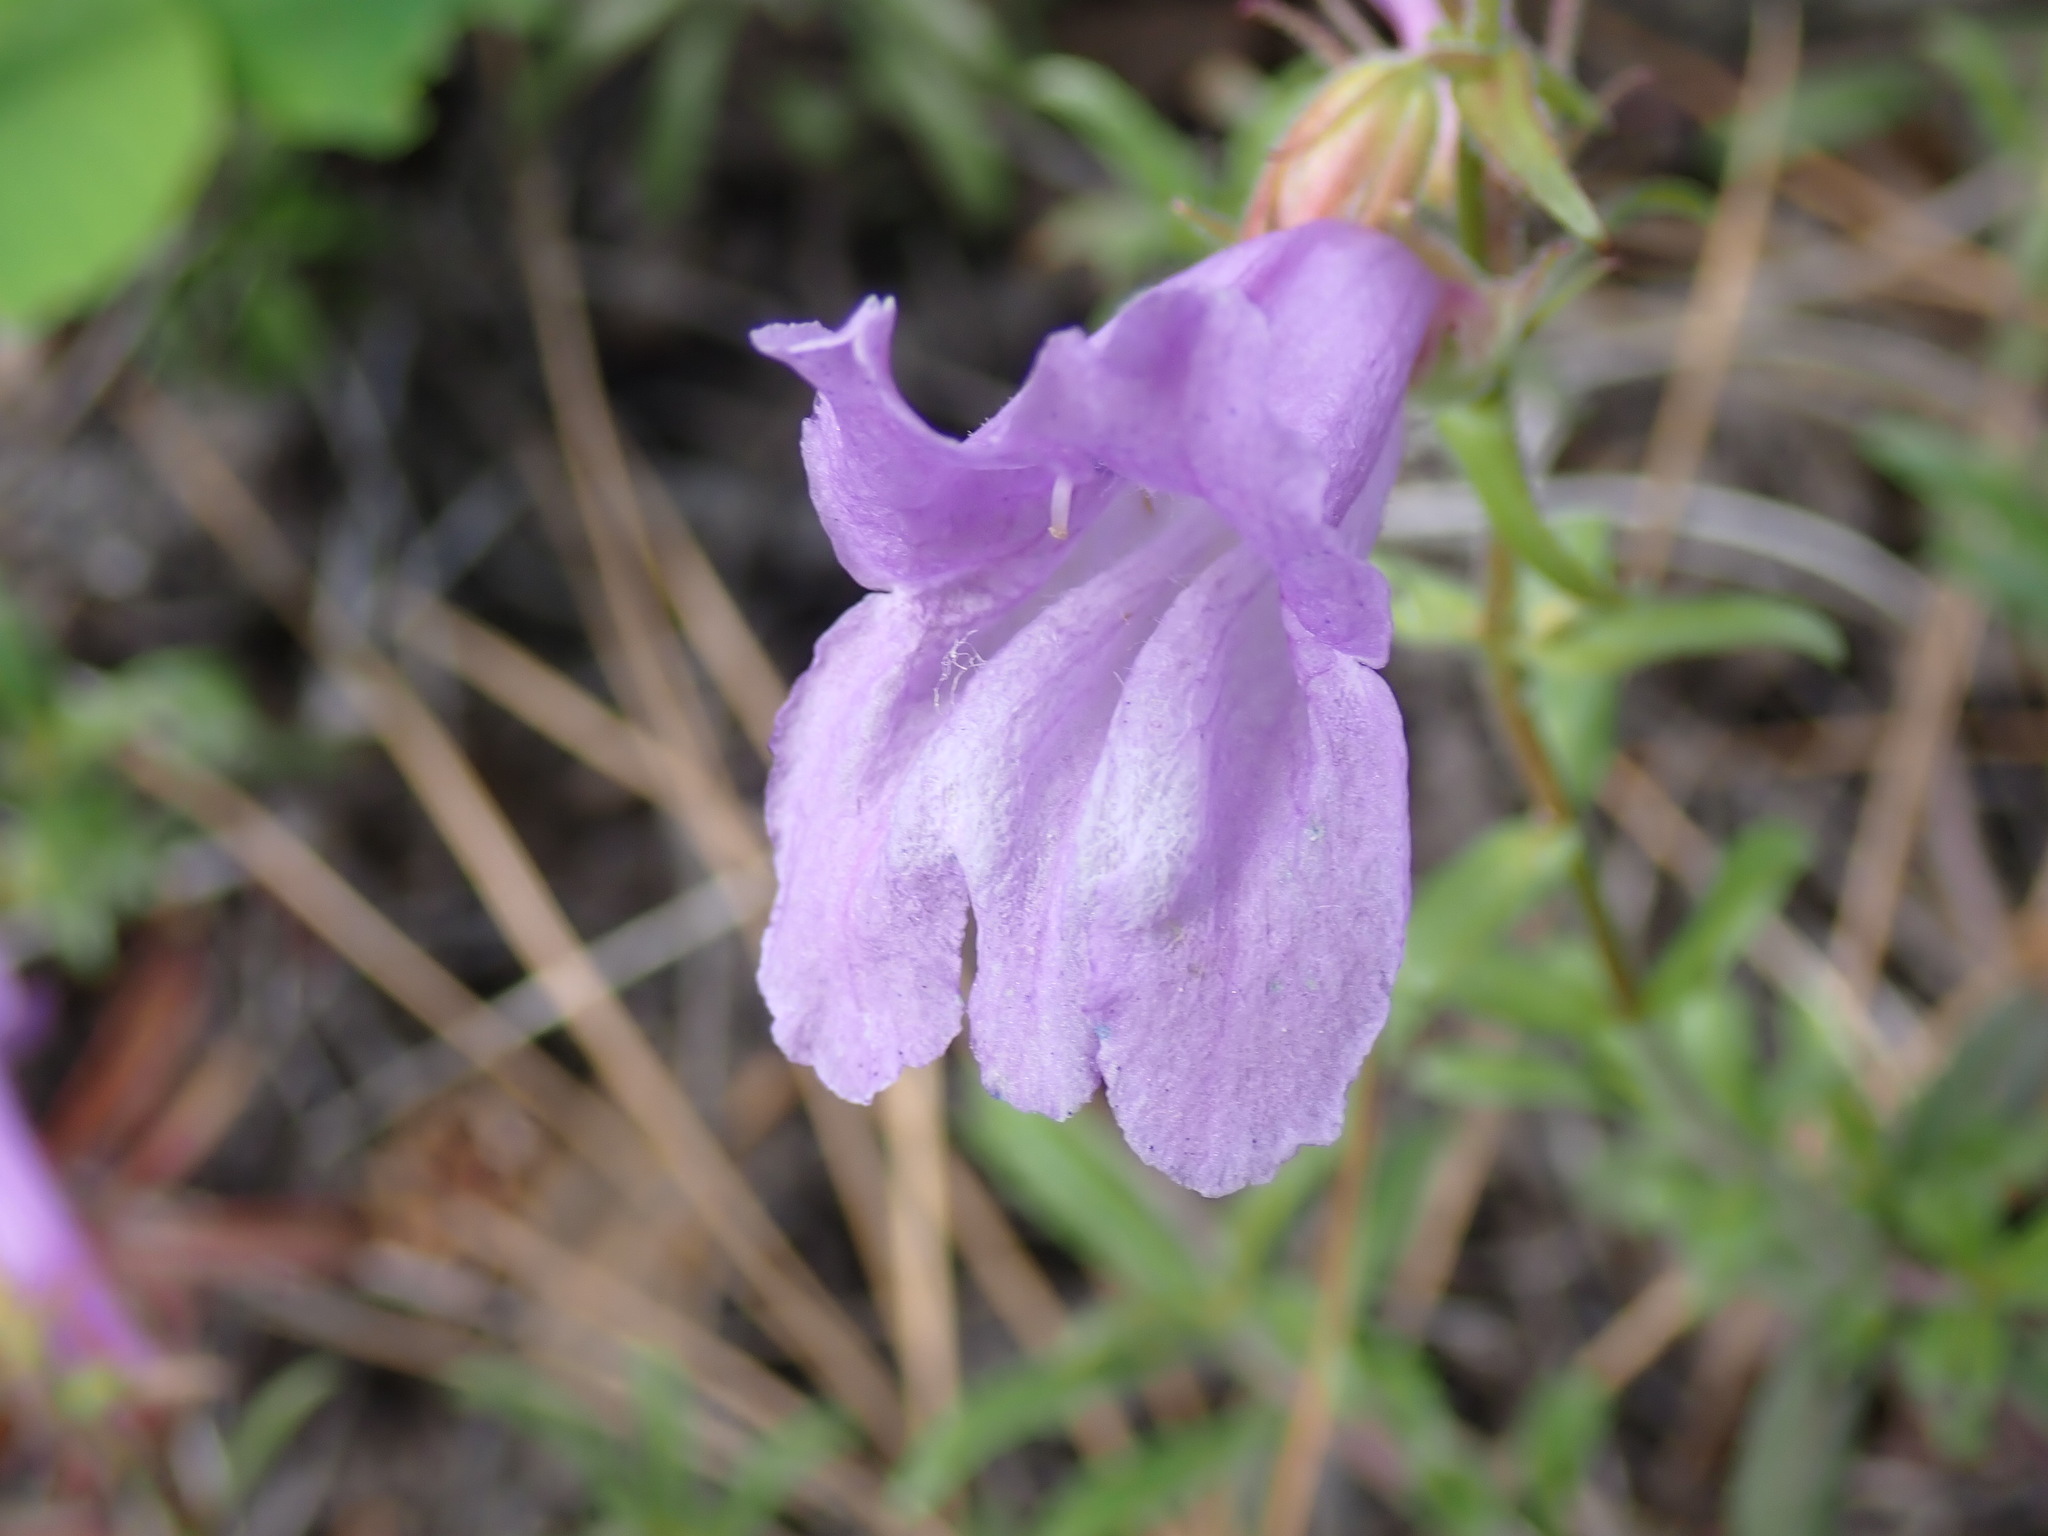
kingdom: Plantae
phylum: Tracheophyta
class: Magnoliopsida
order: Lamiales
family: Plantaginaceae
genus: Penstemon
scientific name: Penstemon fruticosus
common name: Bush penstemon
